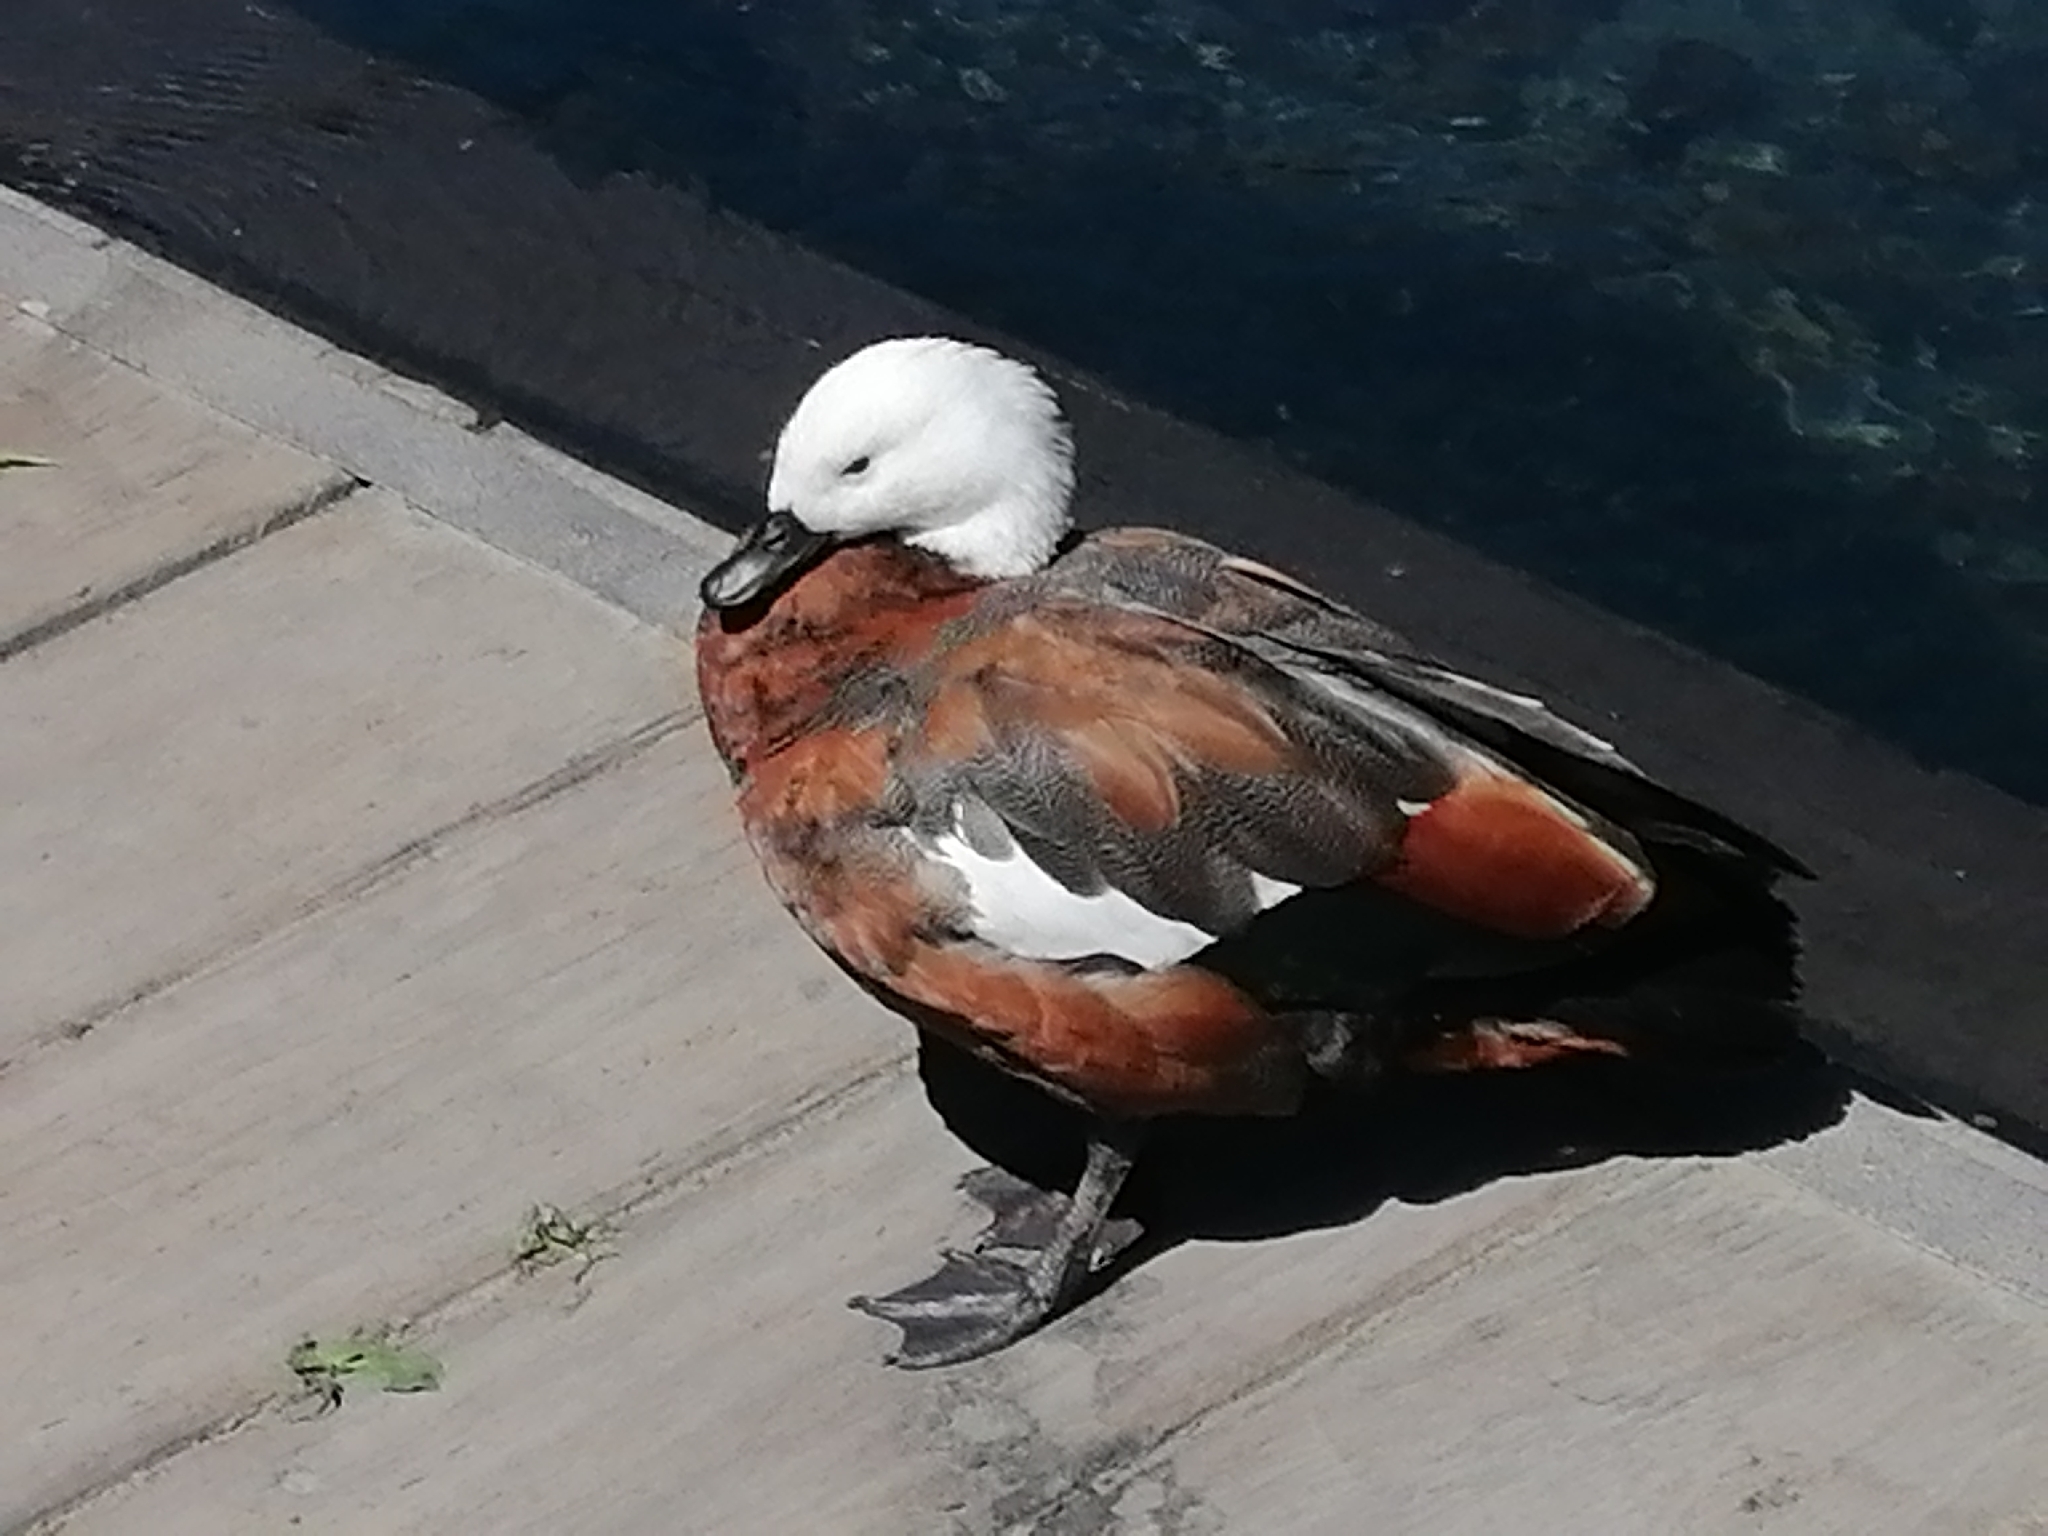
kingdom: Animalia
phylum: Chordata
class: Aves
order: Anseriformes
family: Anatidae
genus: Tadorna
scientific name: Tadorna variegata
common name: Paradise shelduck
